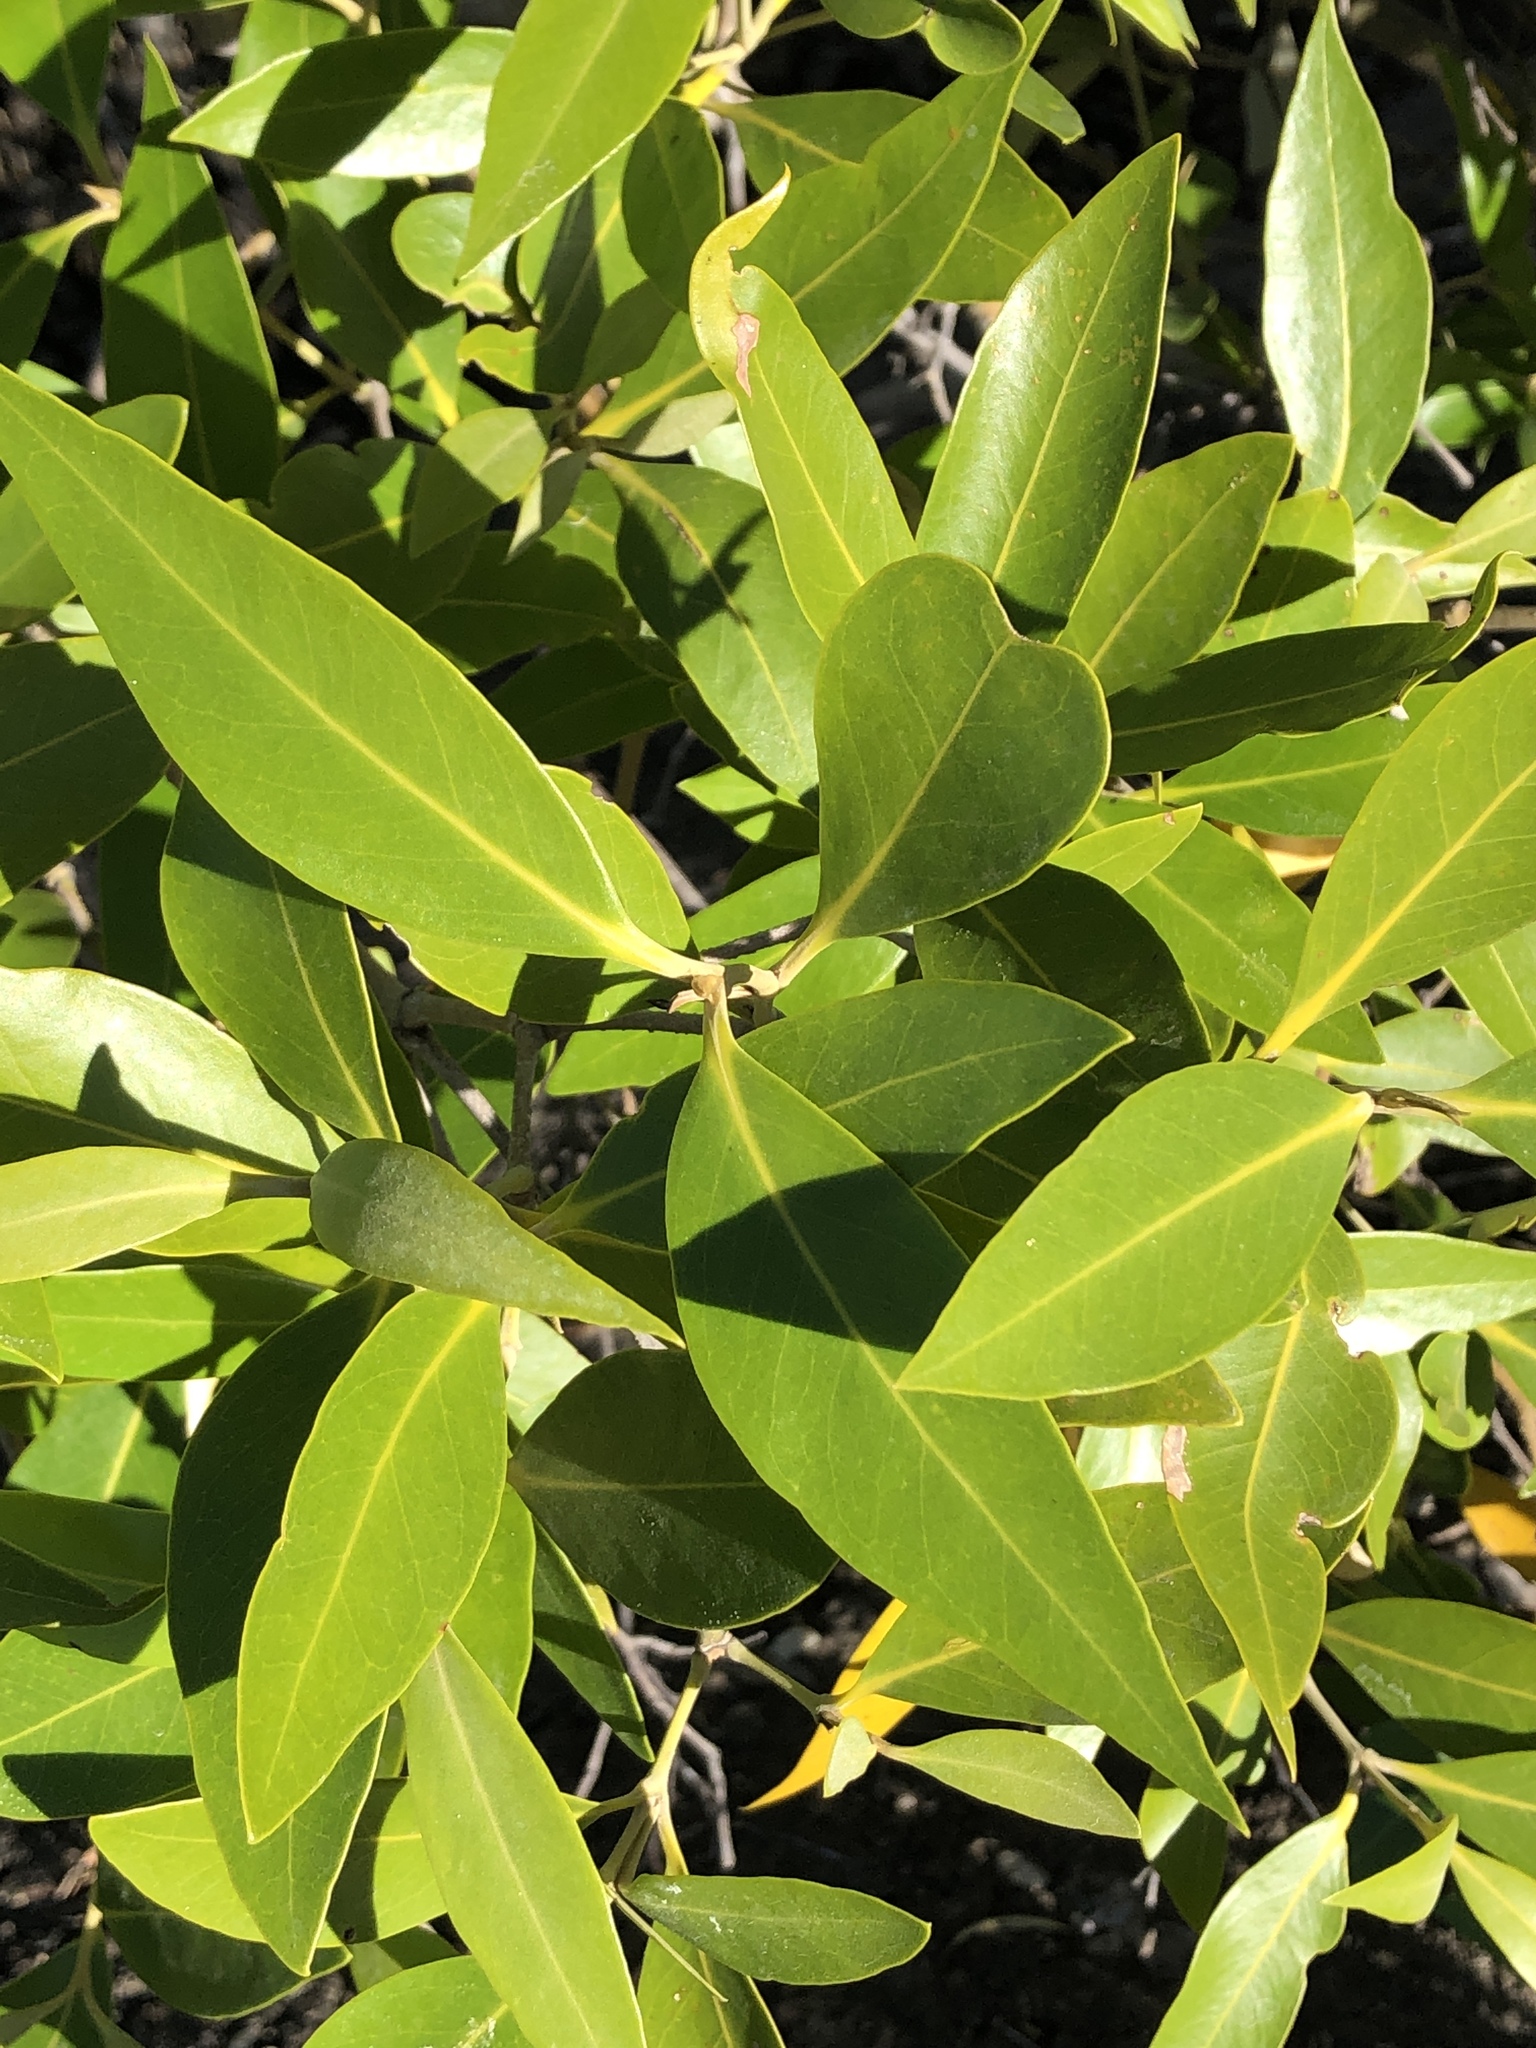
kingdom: Plantae
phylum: Tracheophyta
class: Magnoliopsida
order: Lamiales
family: Acanthaceae
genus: Avicennia
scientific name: Avicennia marina
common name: Gray mangrove
